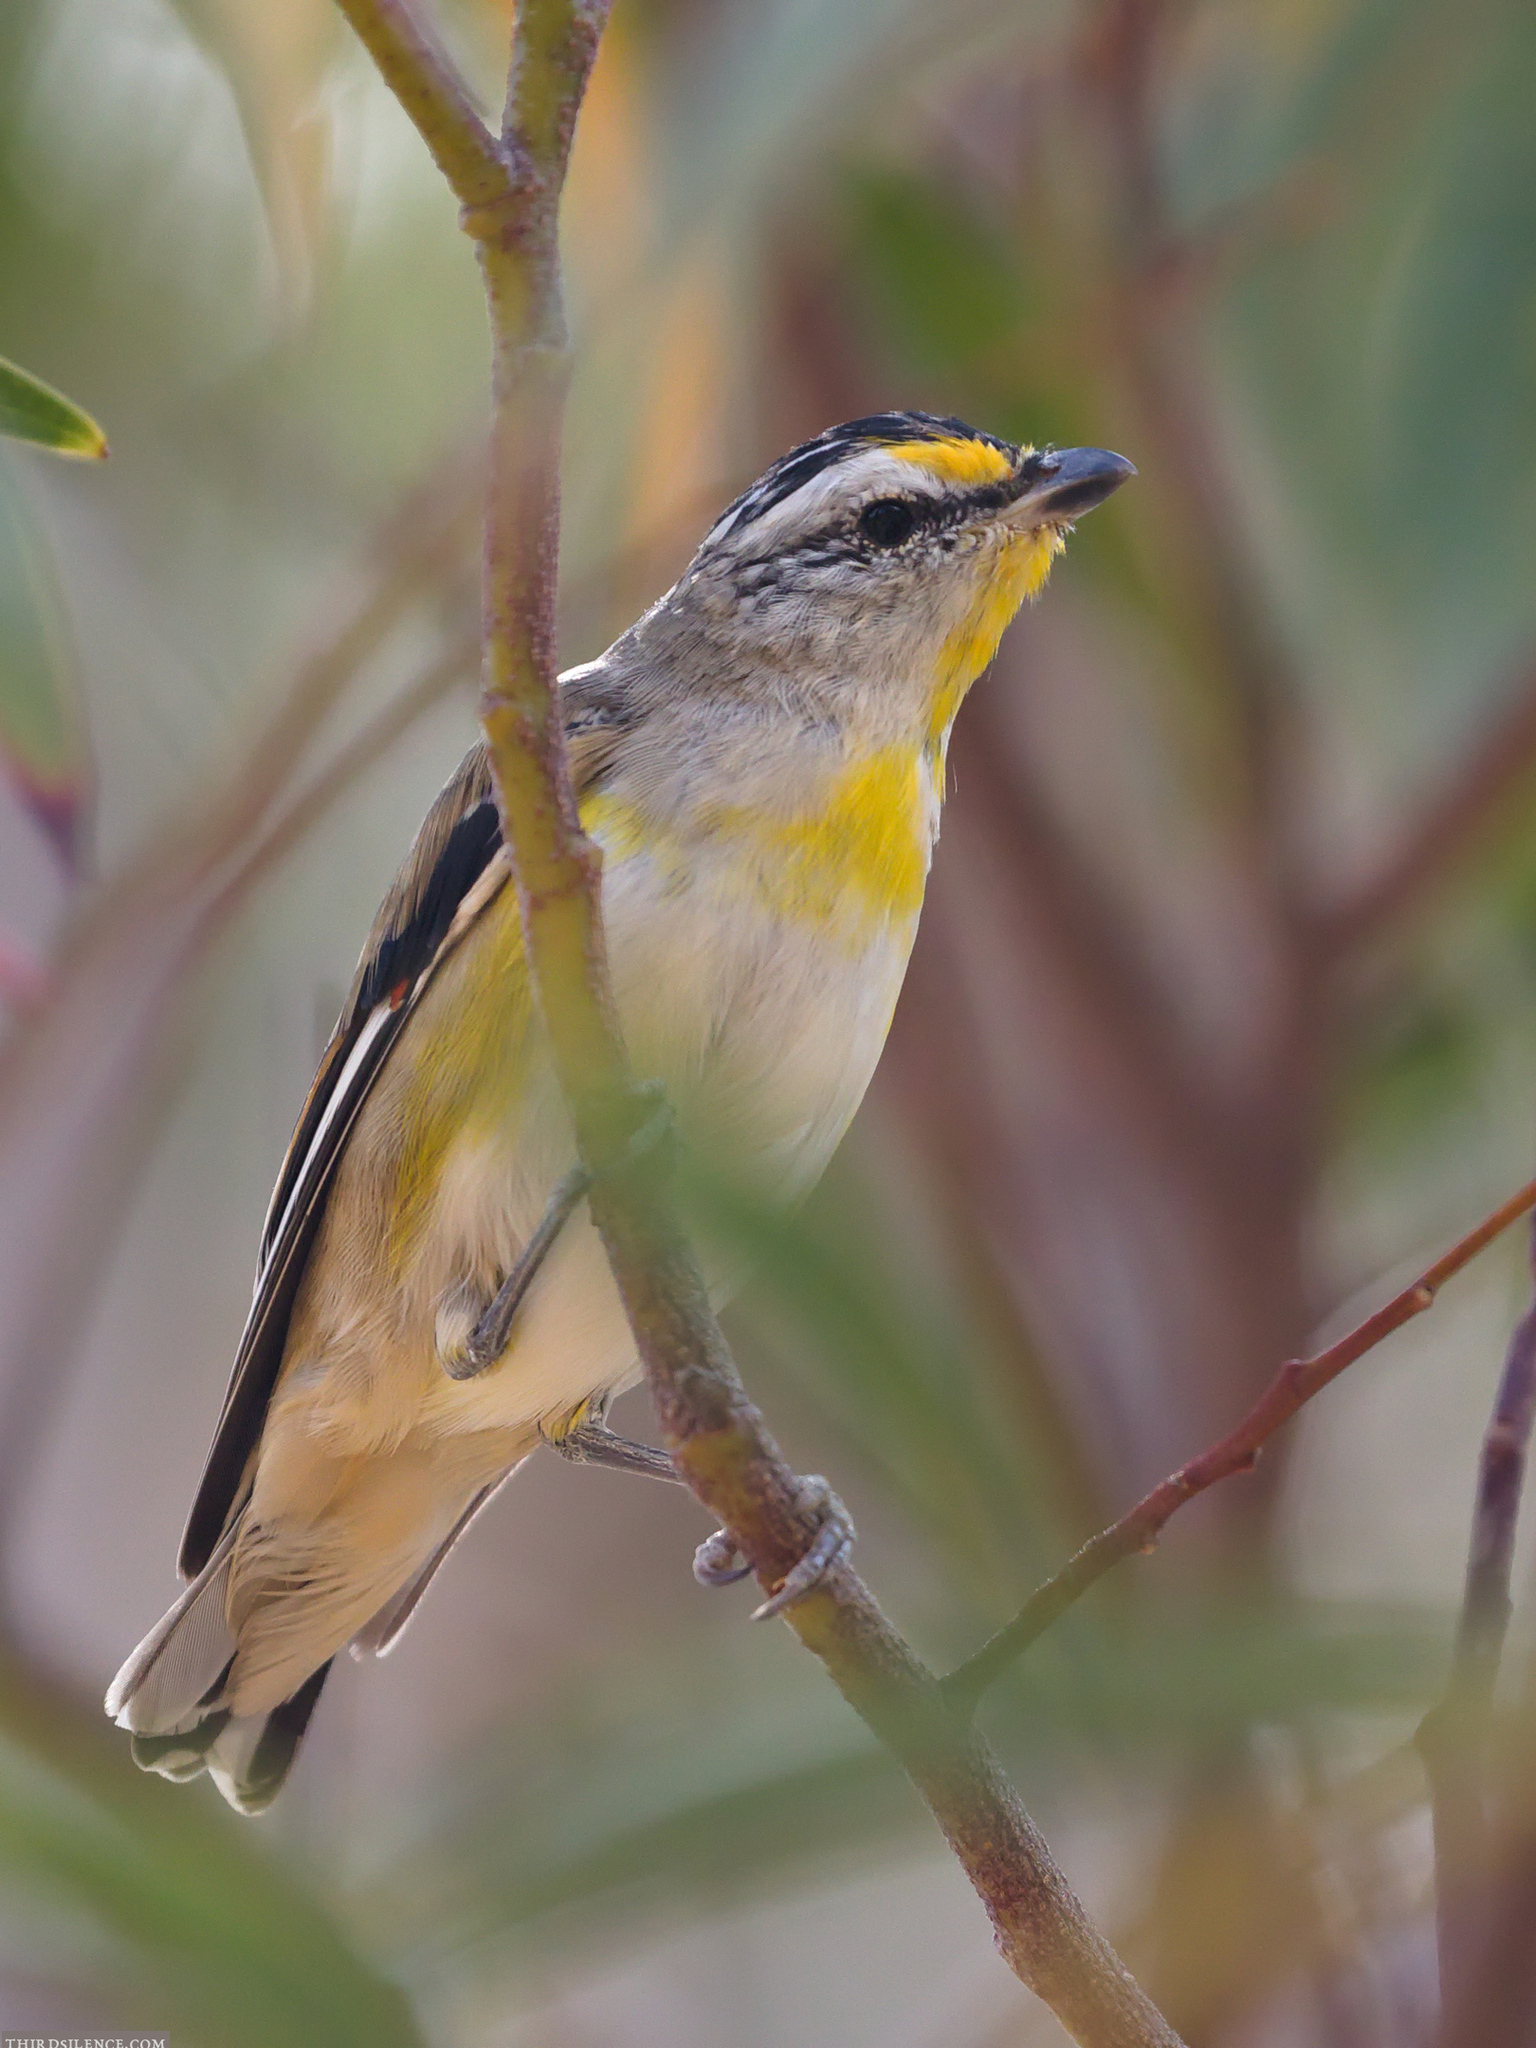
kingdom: Animalia
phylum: Chordata
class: Aves
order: Passeriformes
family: Pardalotidae
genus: Pardalotus
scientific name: Pardalotus striatus
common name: Striated pardalote
